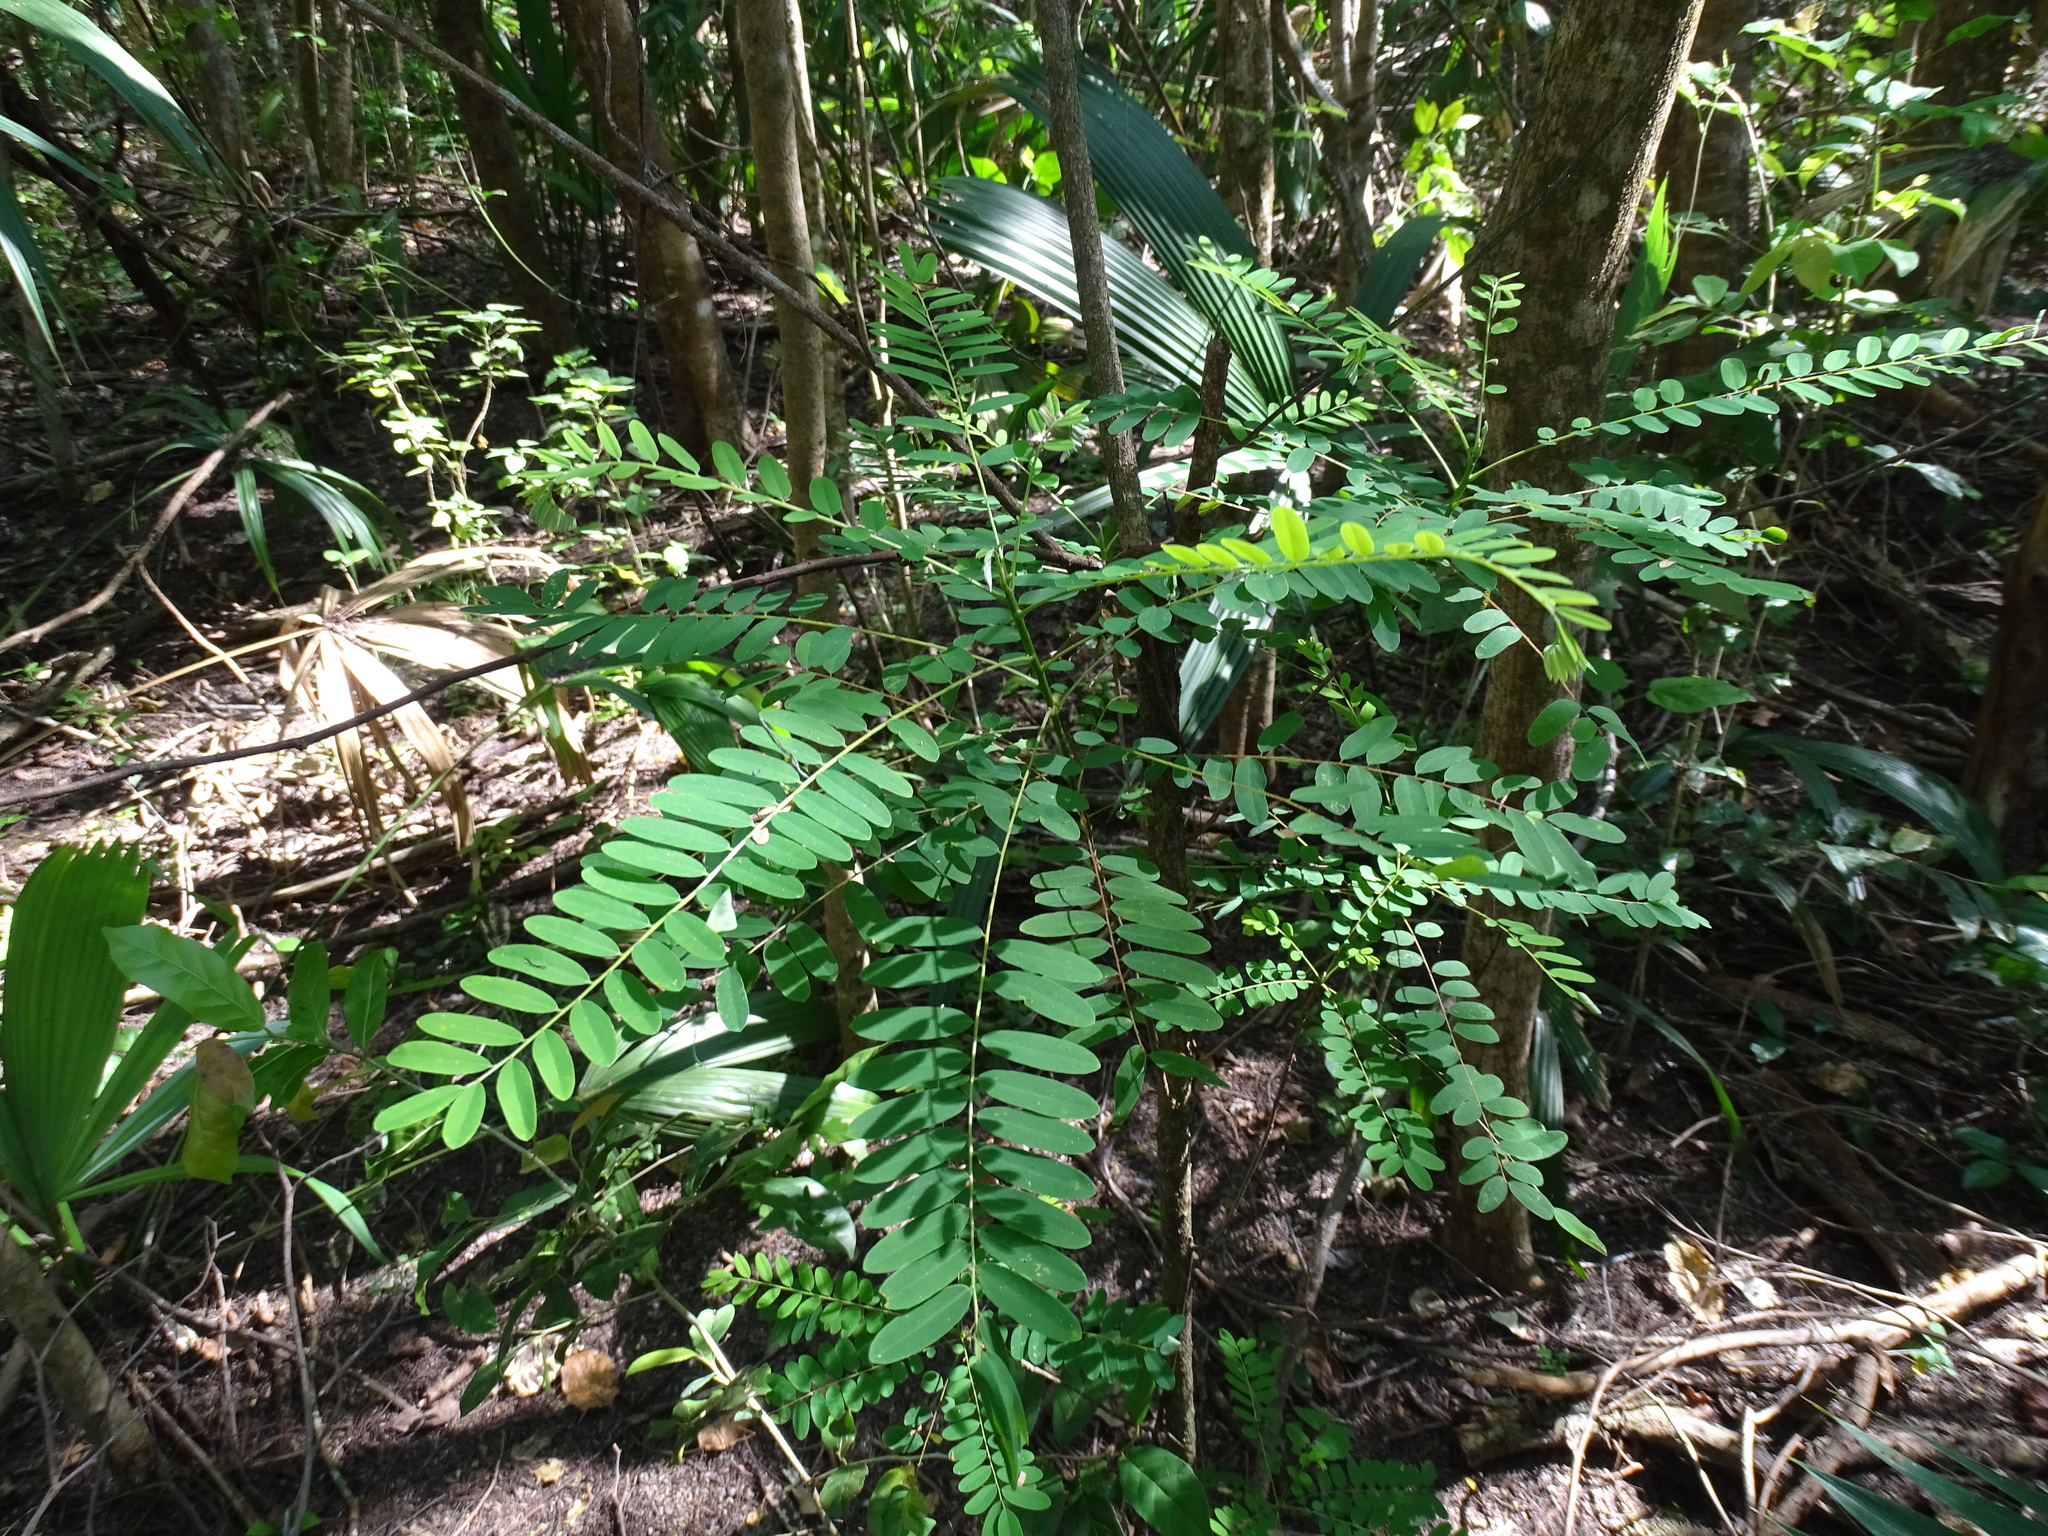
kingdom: Plantae
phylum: Tracheophyta
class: Magnoliopsida
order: Picramniales
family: Picramniaceae
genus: Alvaradoa
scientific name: Alvaradoa amorphoides
